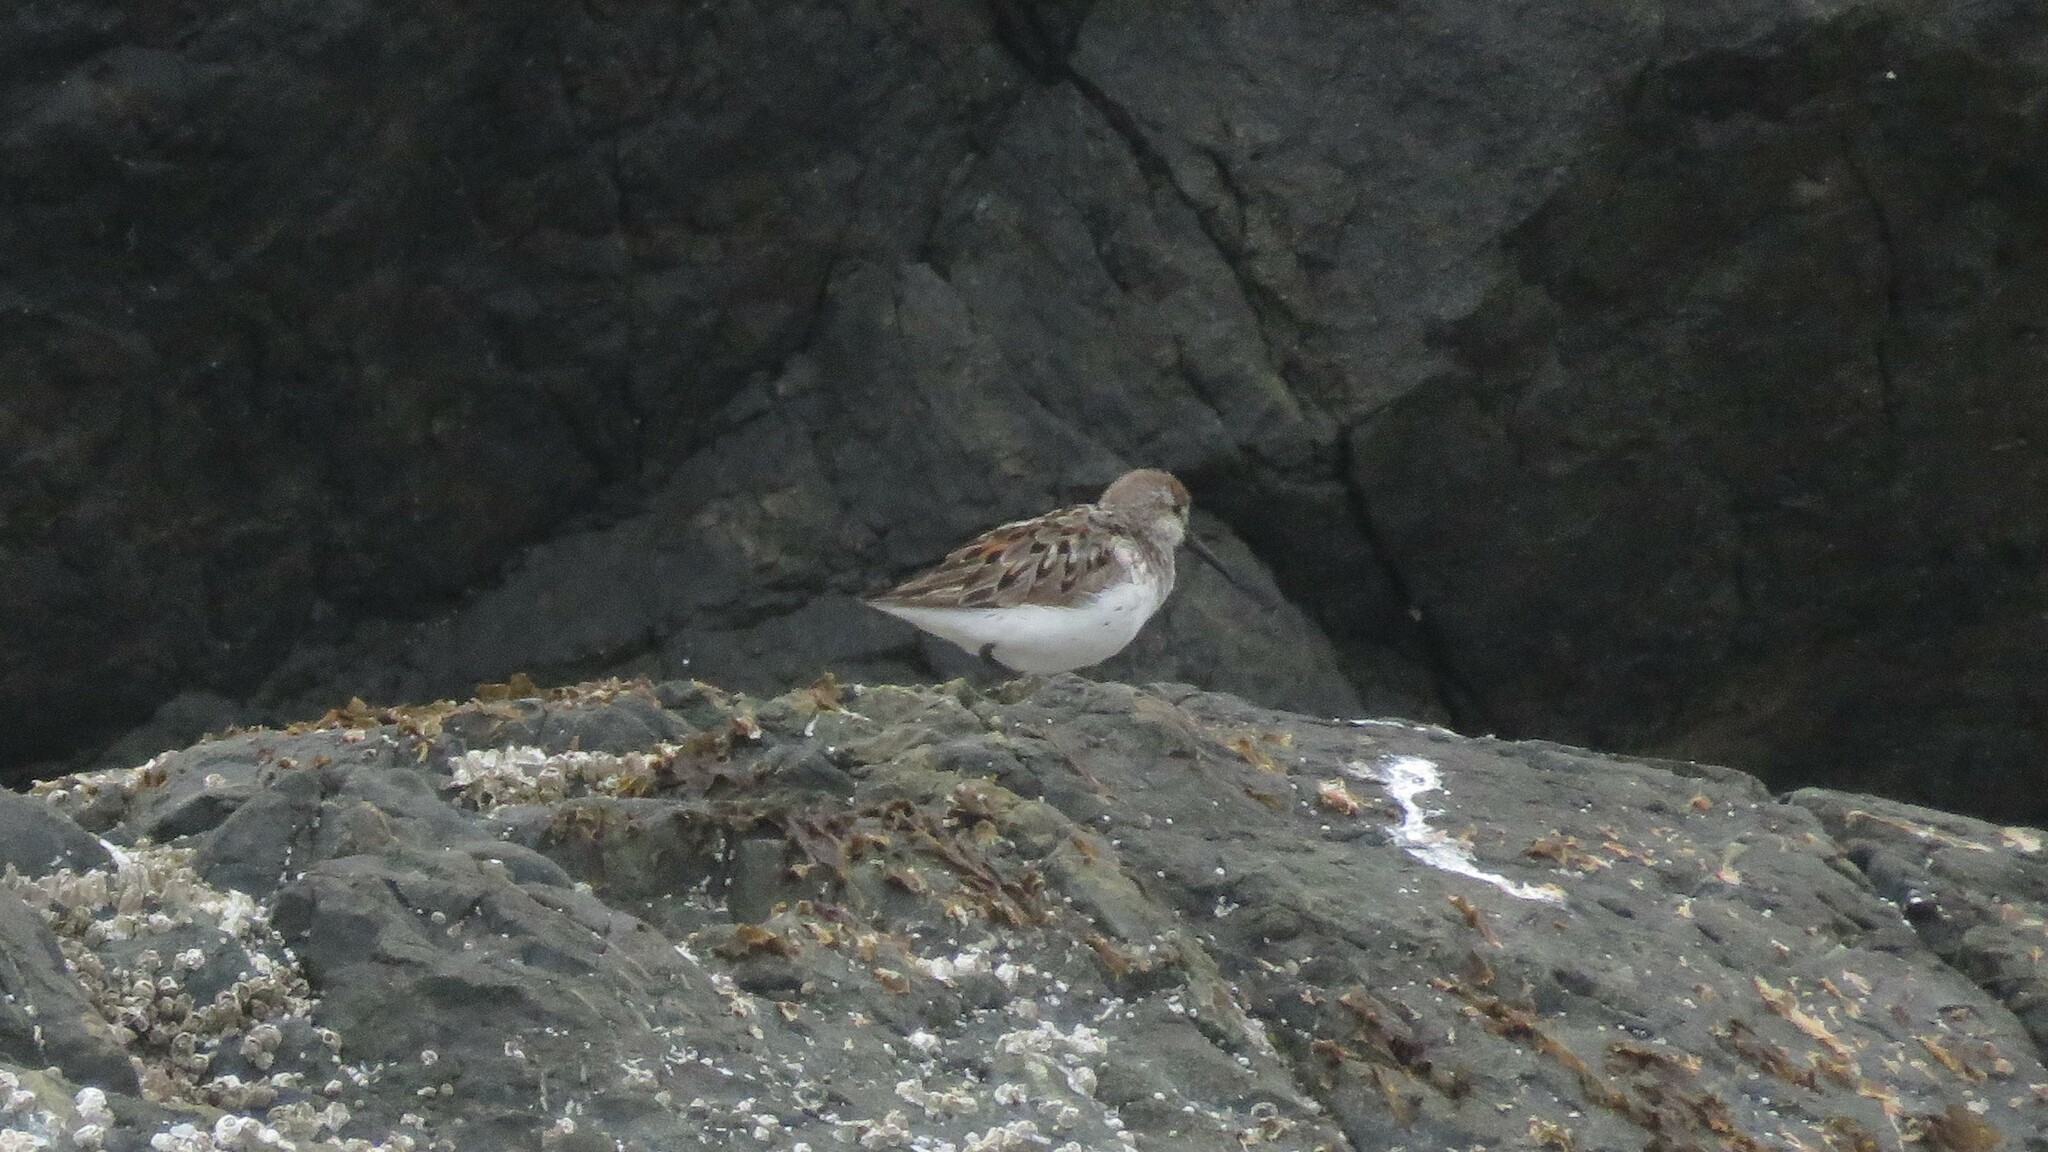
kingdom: Animalia
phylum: Chordata
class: Aves
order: Charadriiformes
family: Scolopacidae
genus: Calidris
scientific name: Calidris mauri
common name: Western sandpiper
